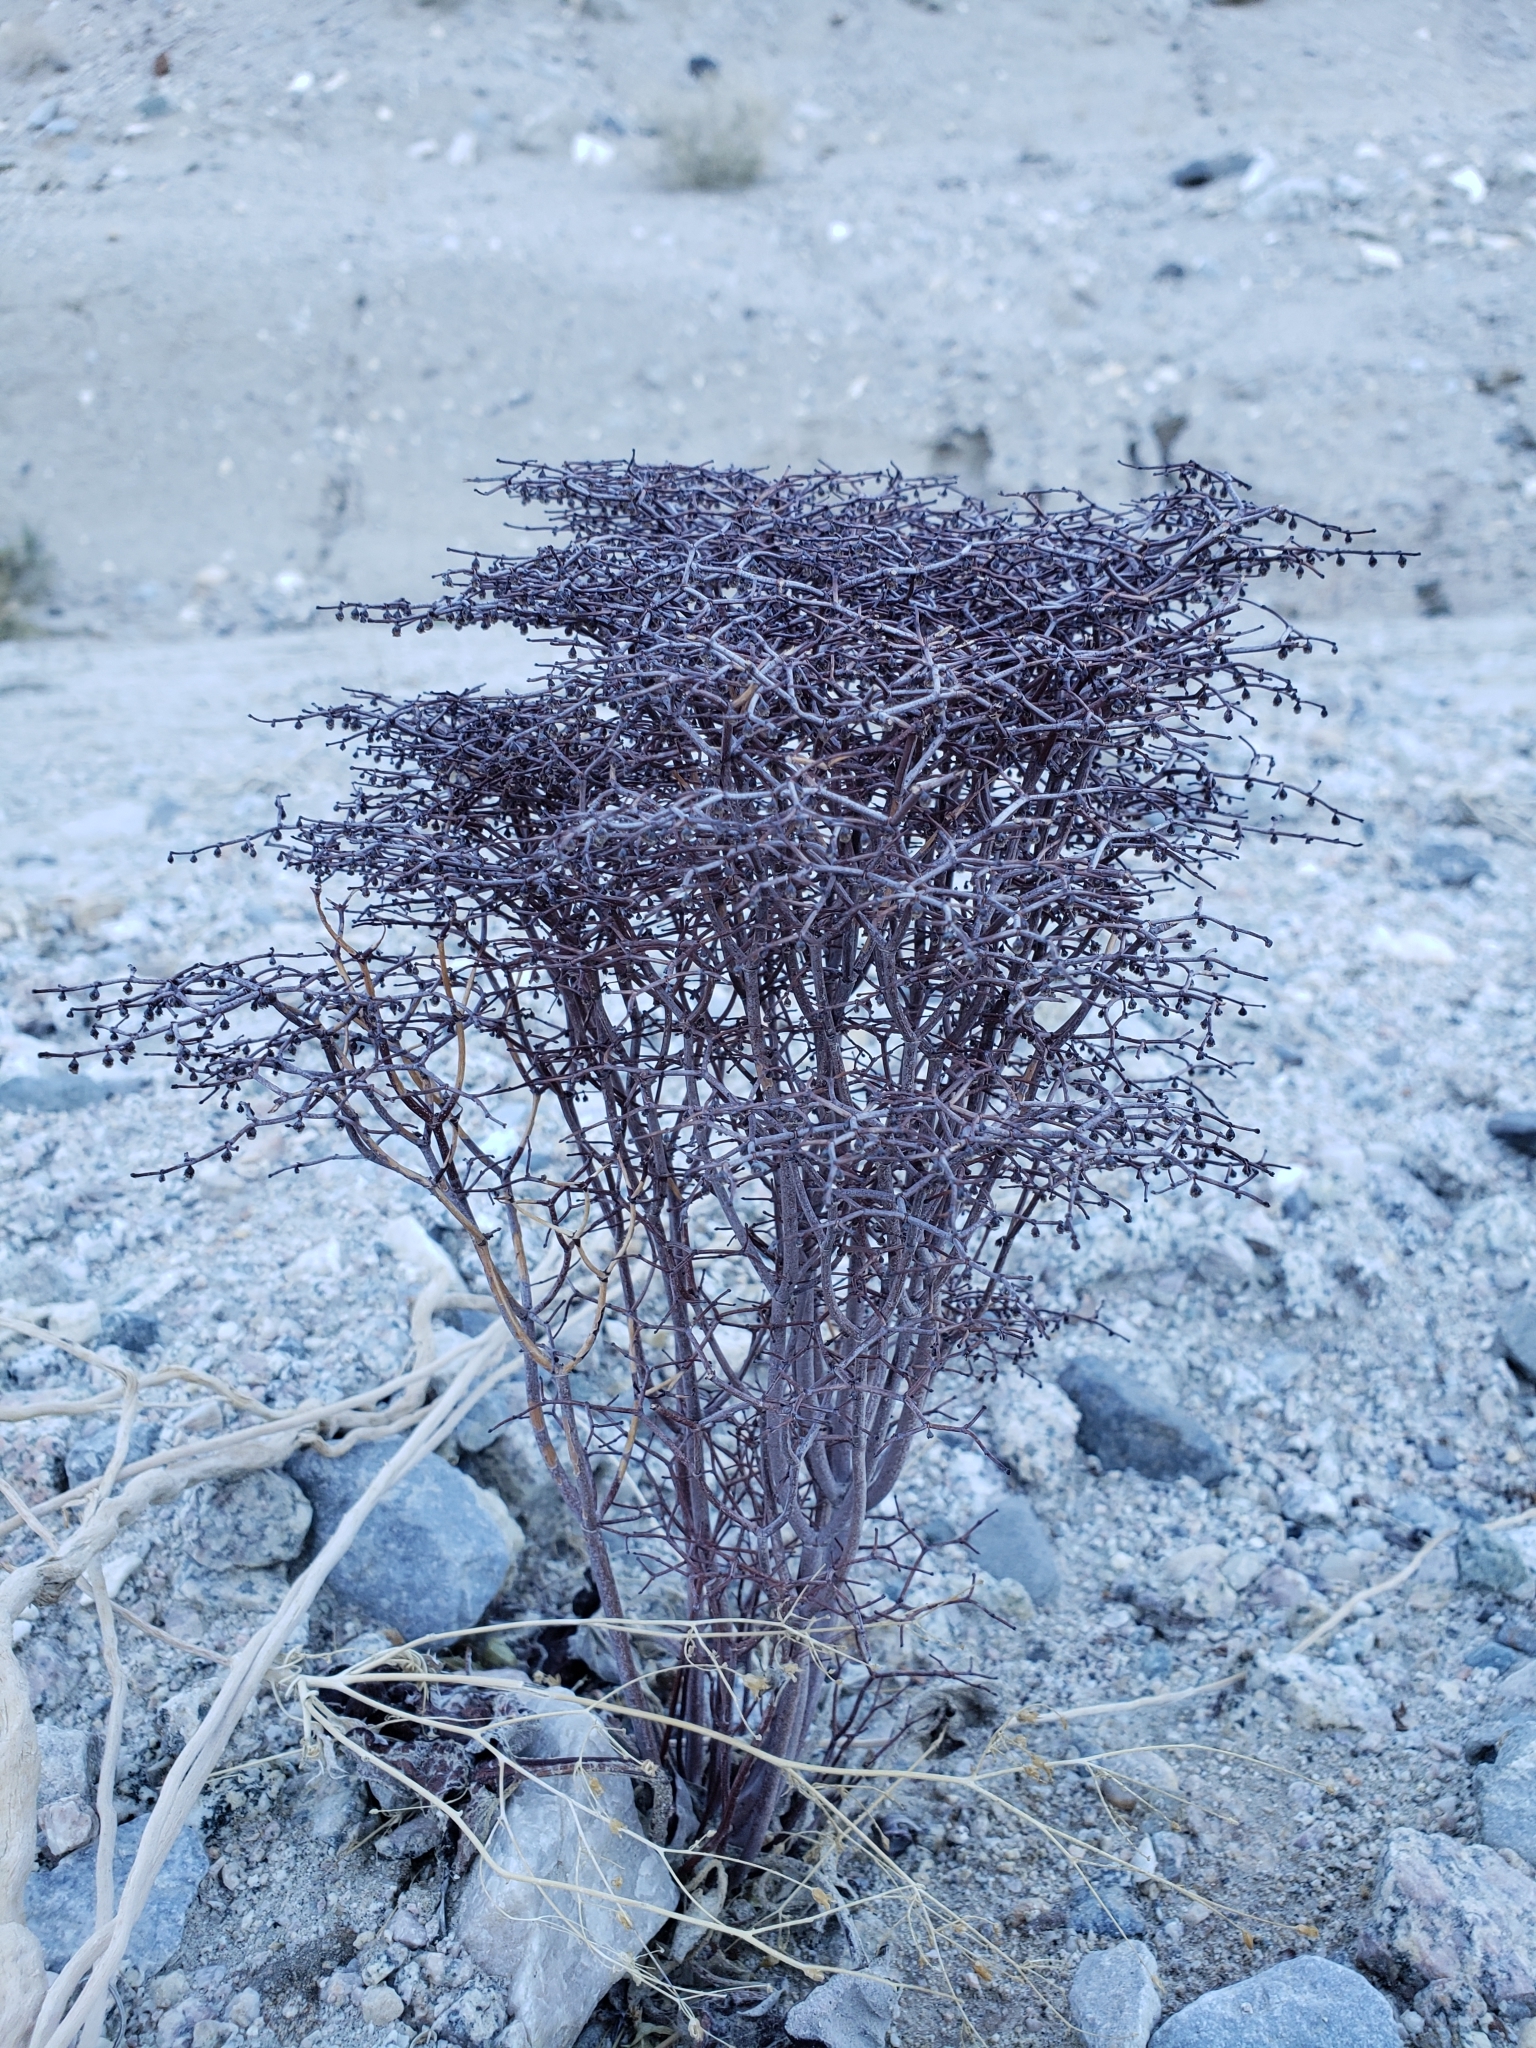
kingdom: Plantae
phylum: Tracheophyta
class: Magnoliopsida
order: Caryophyllales
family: Polygonaceae
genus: Eriogonum
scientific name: Eriogonum rixfordii
